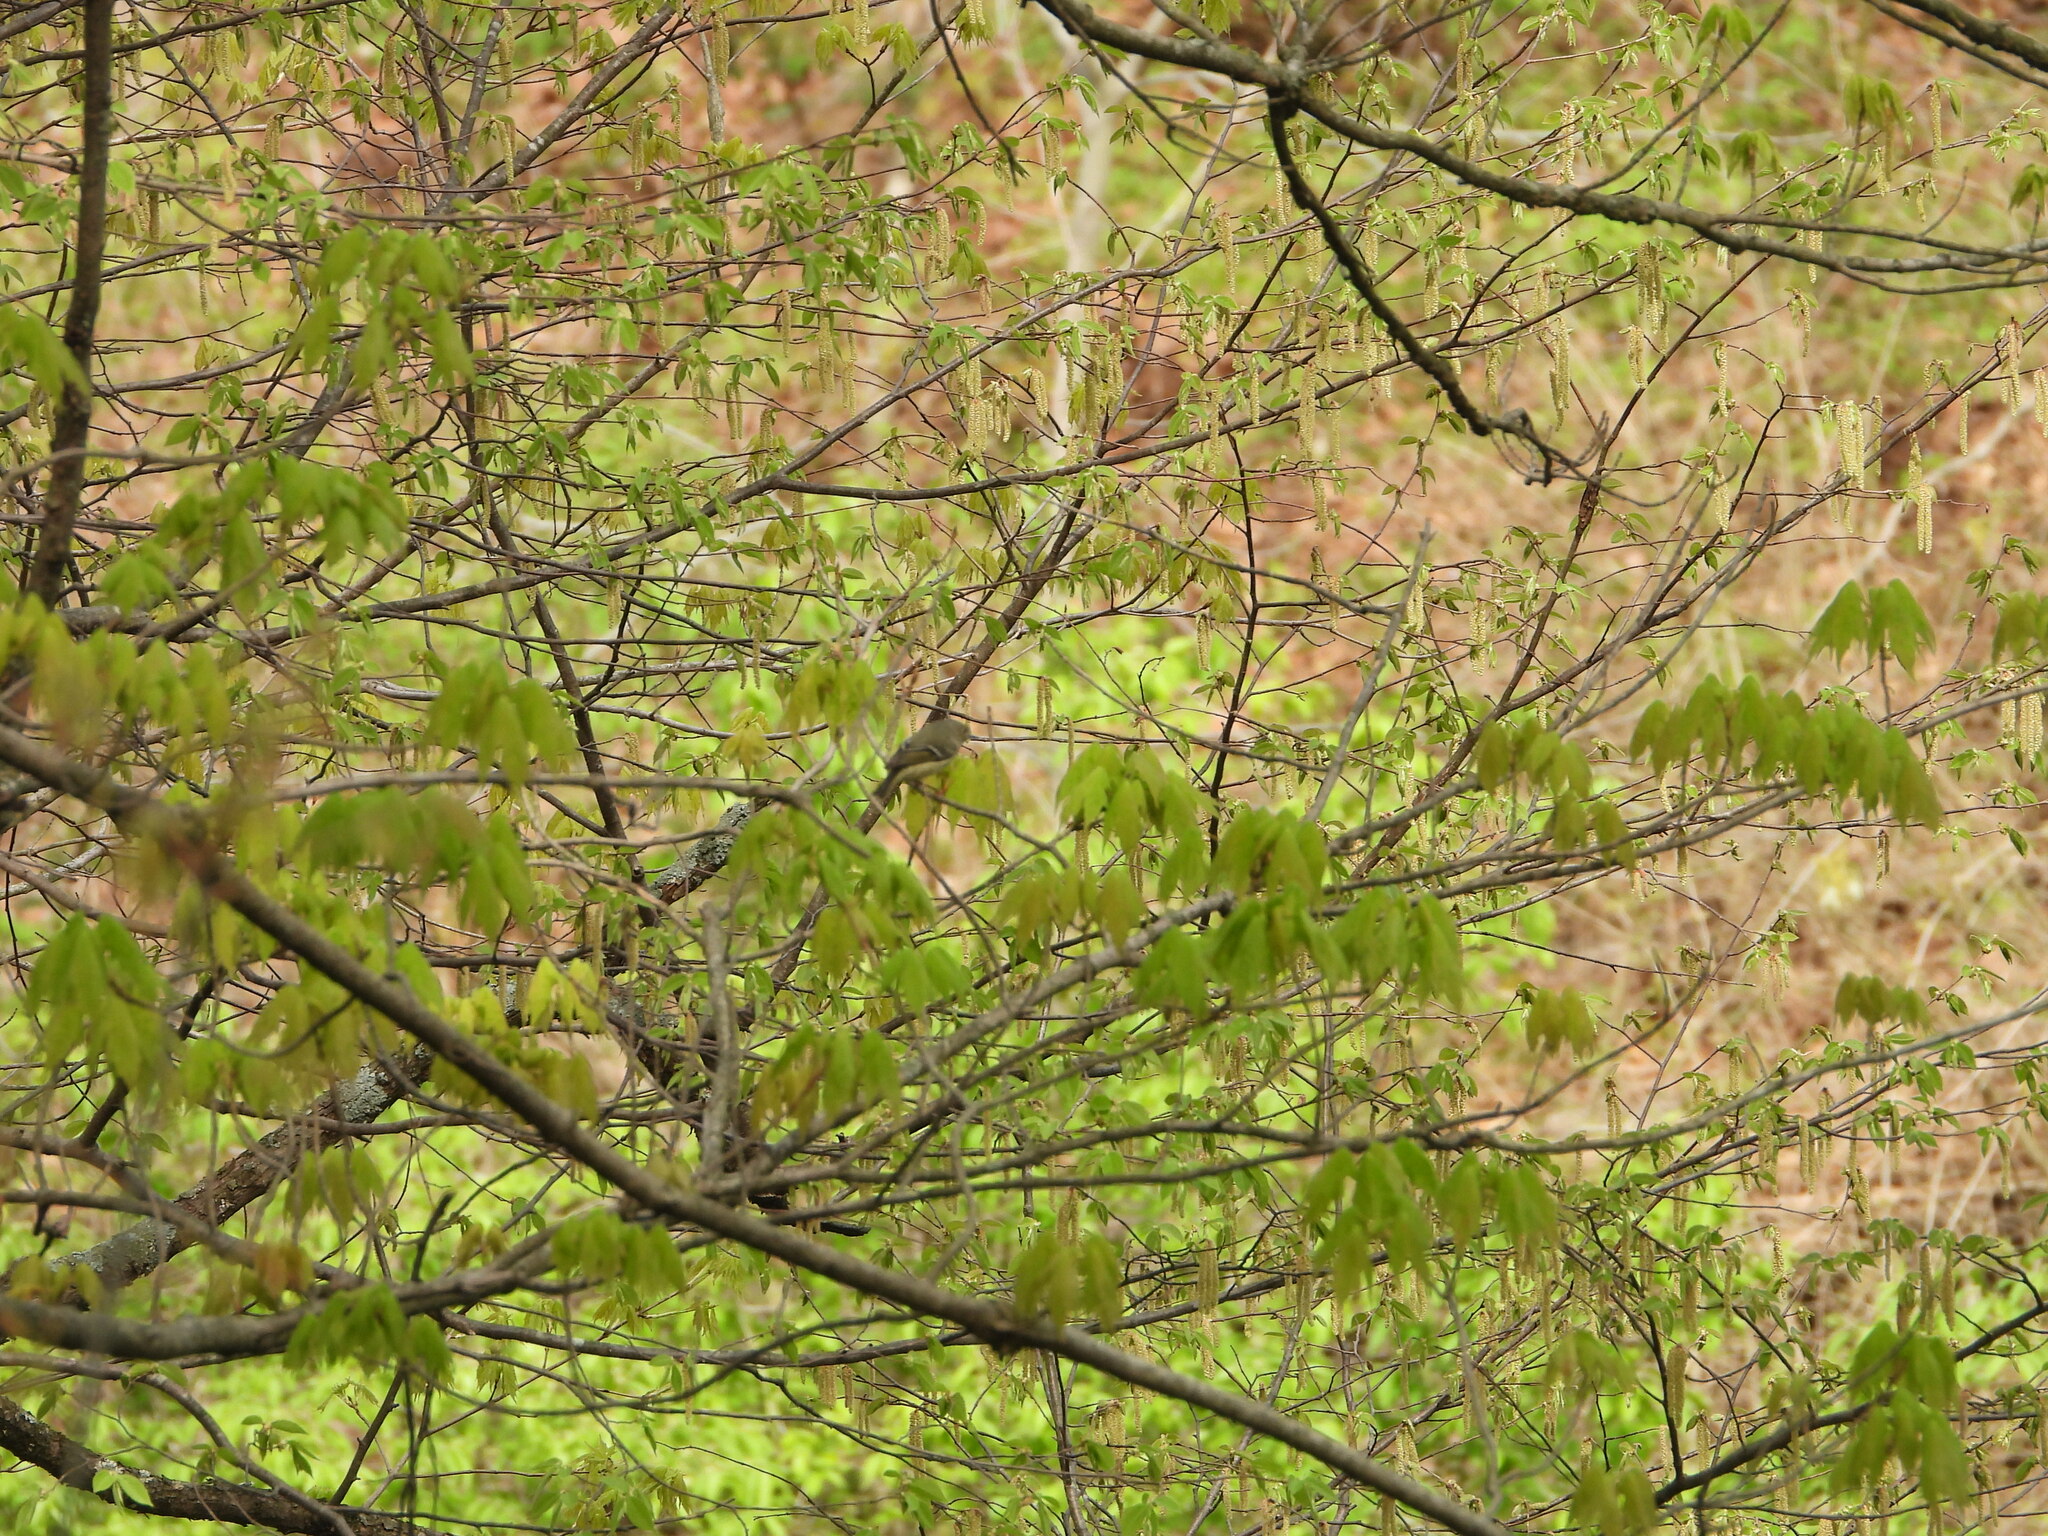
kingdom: Animalia
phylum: Chordata
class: Aves
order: Passeriformes
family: Regulidae
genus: Regulus
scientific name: Regulus calendula
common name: Ruby-crowned kinglet
